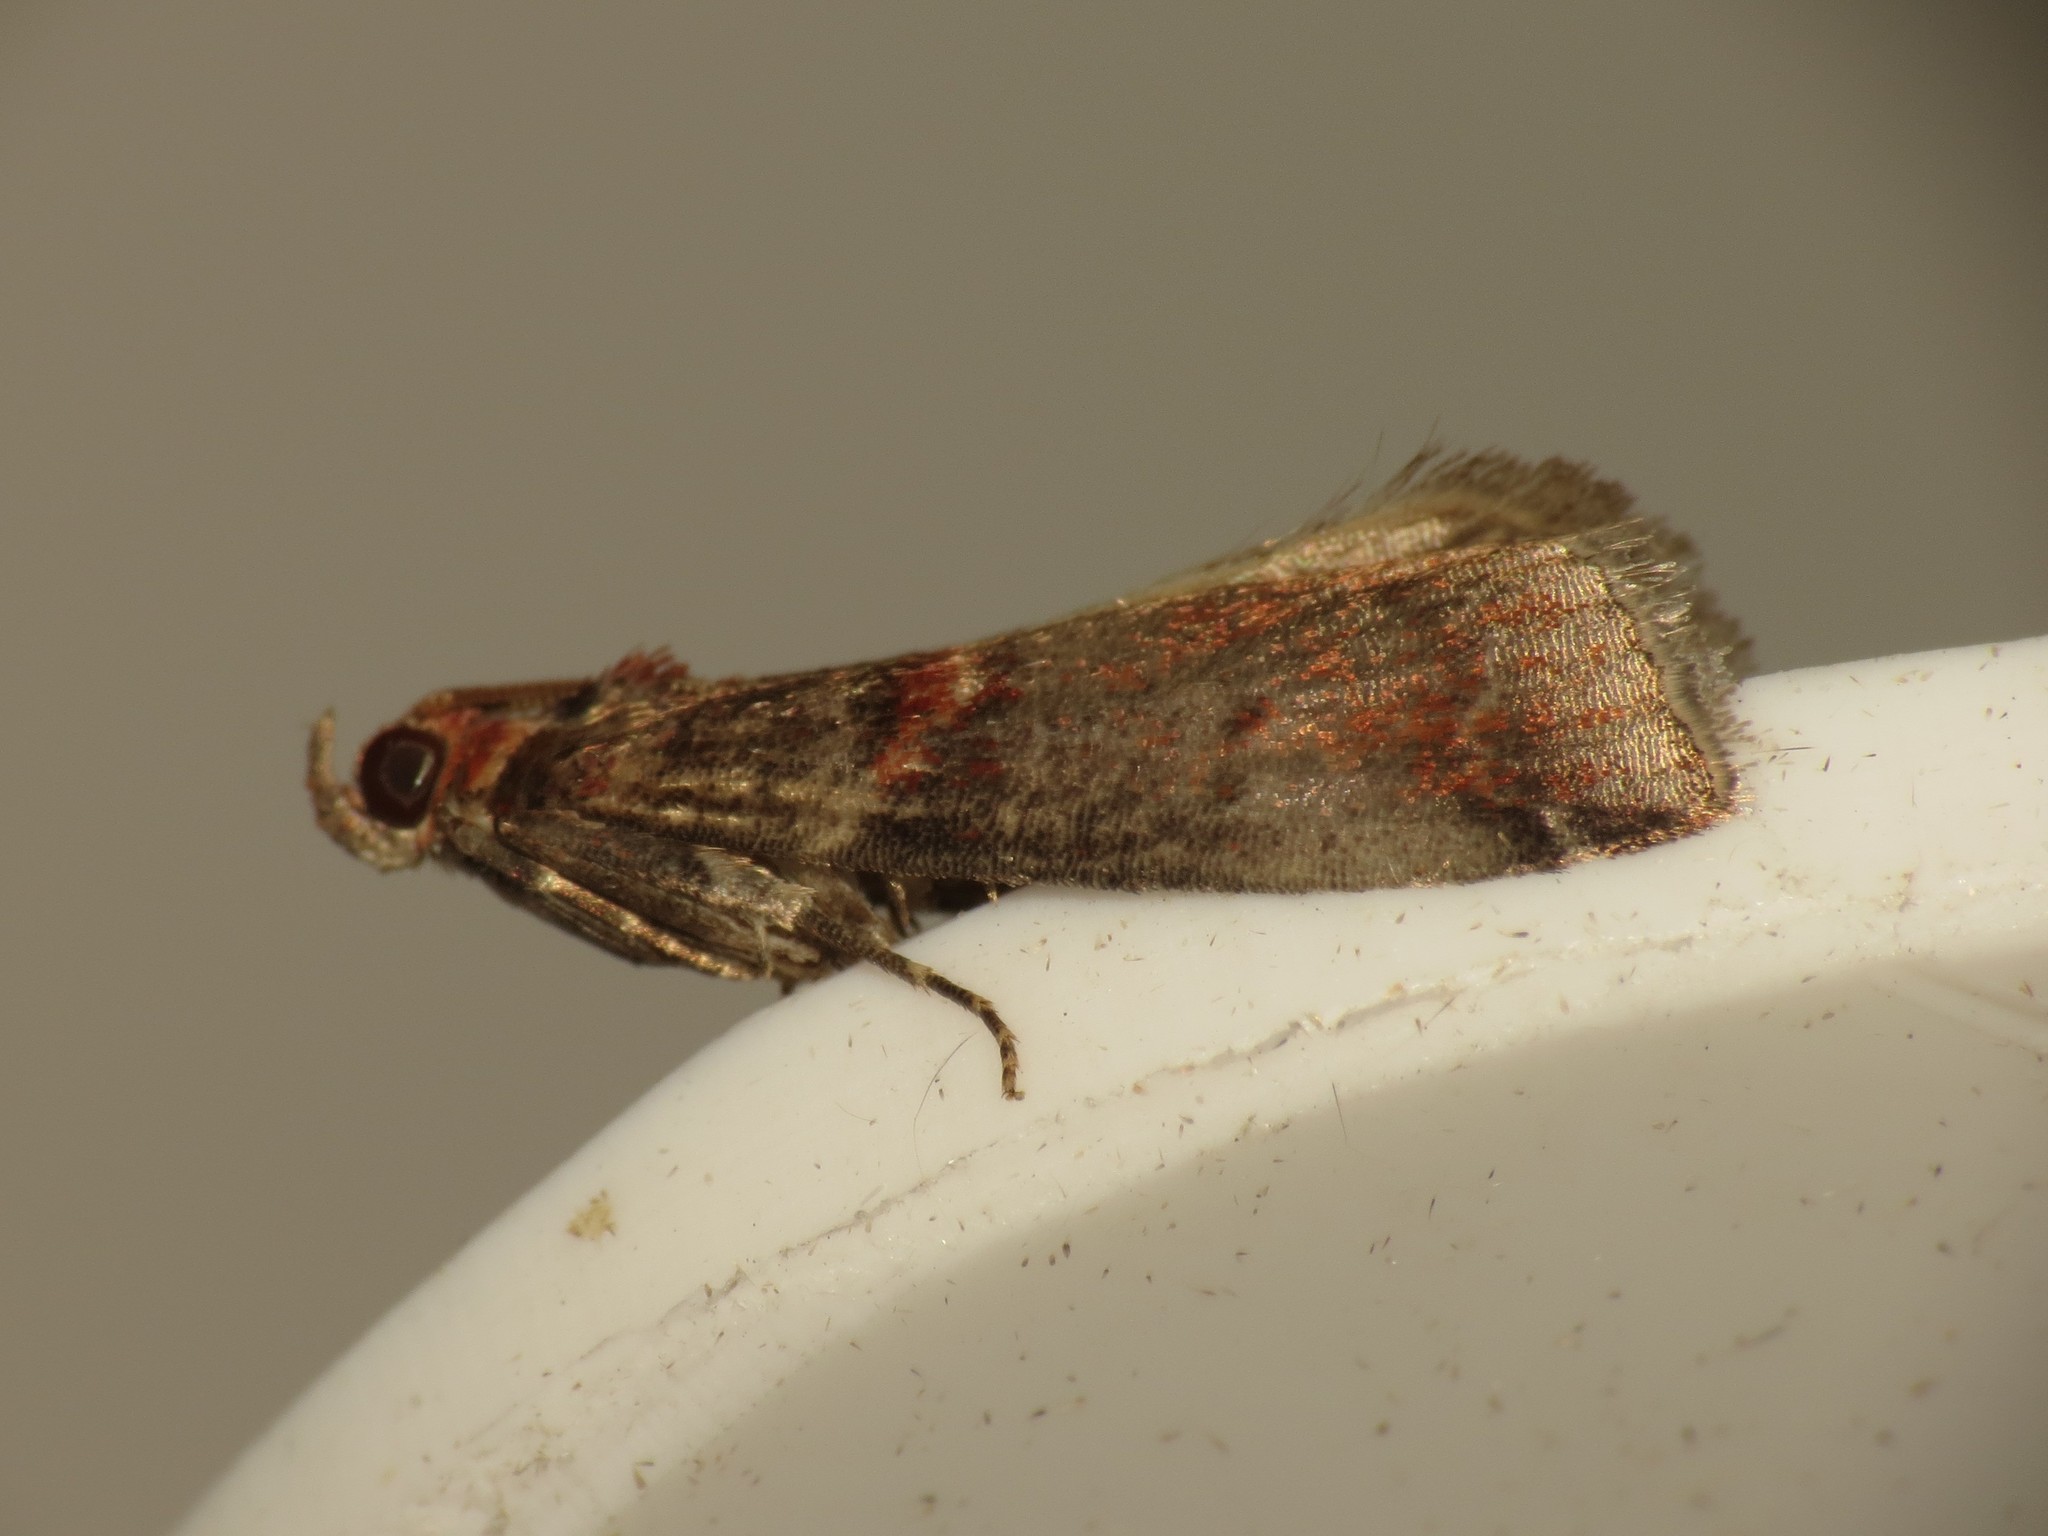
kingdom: Animalia
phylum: Arthropoda
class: Insecta
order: Lepidoptera
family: Pyralidae
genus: Acrobasis
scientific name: Acrobasis advenella
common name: Grey knot-horn
